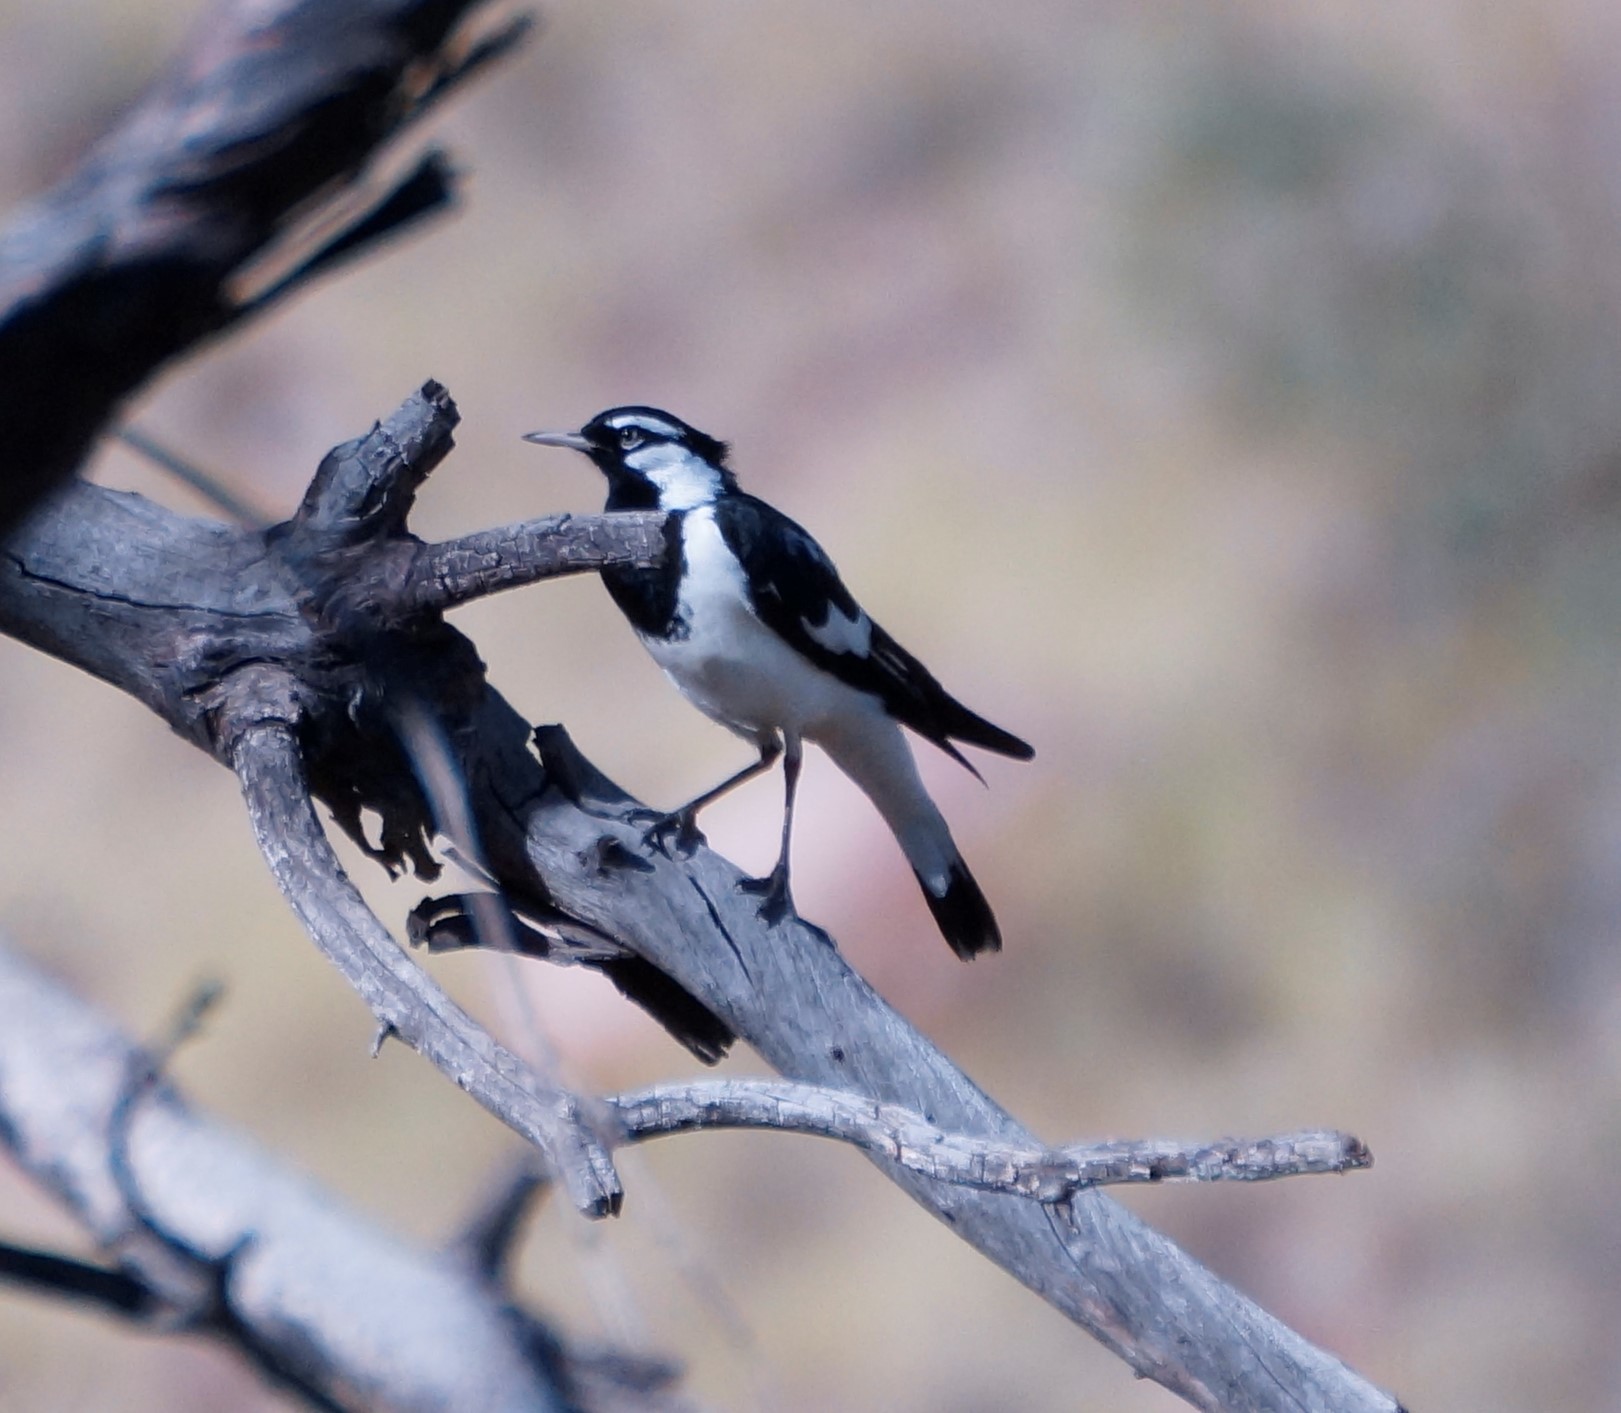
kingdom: Animalia
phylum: Chordata
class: Aves
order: Passeriformes
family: Monarchidae
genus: Grallina
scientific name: Grallina cyanoleuca
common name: Magpie-lark
